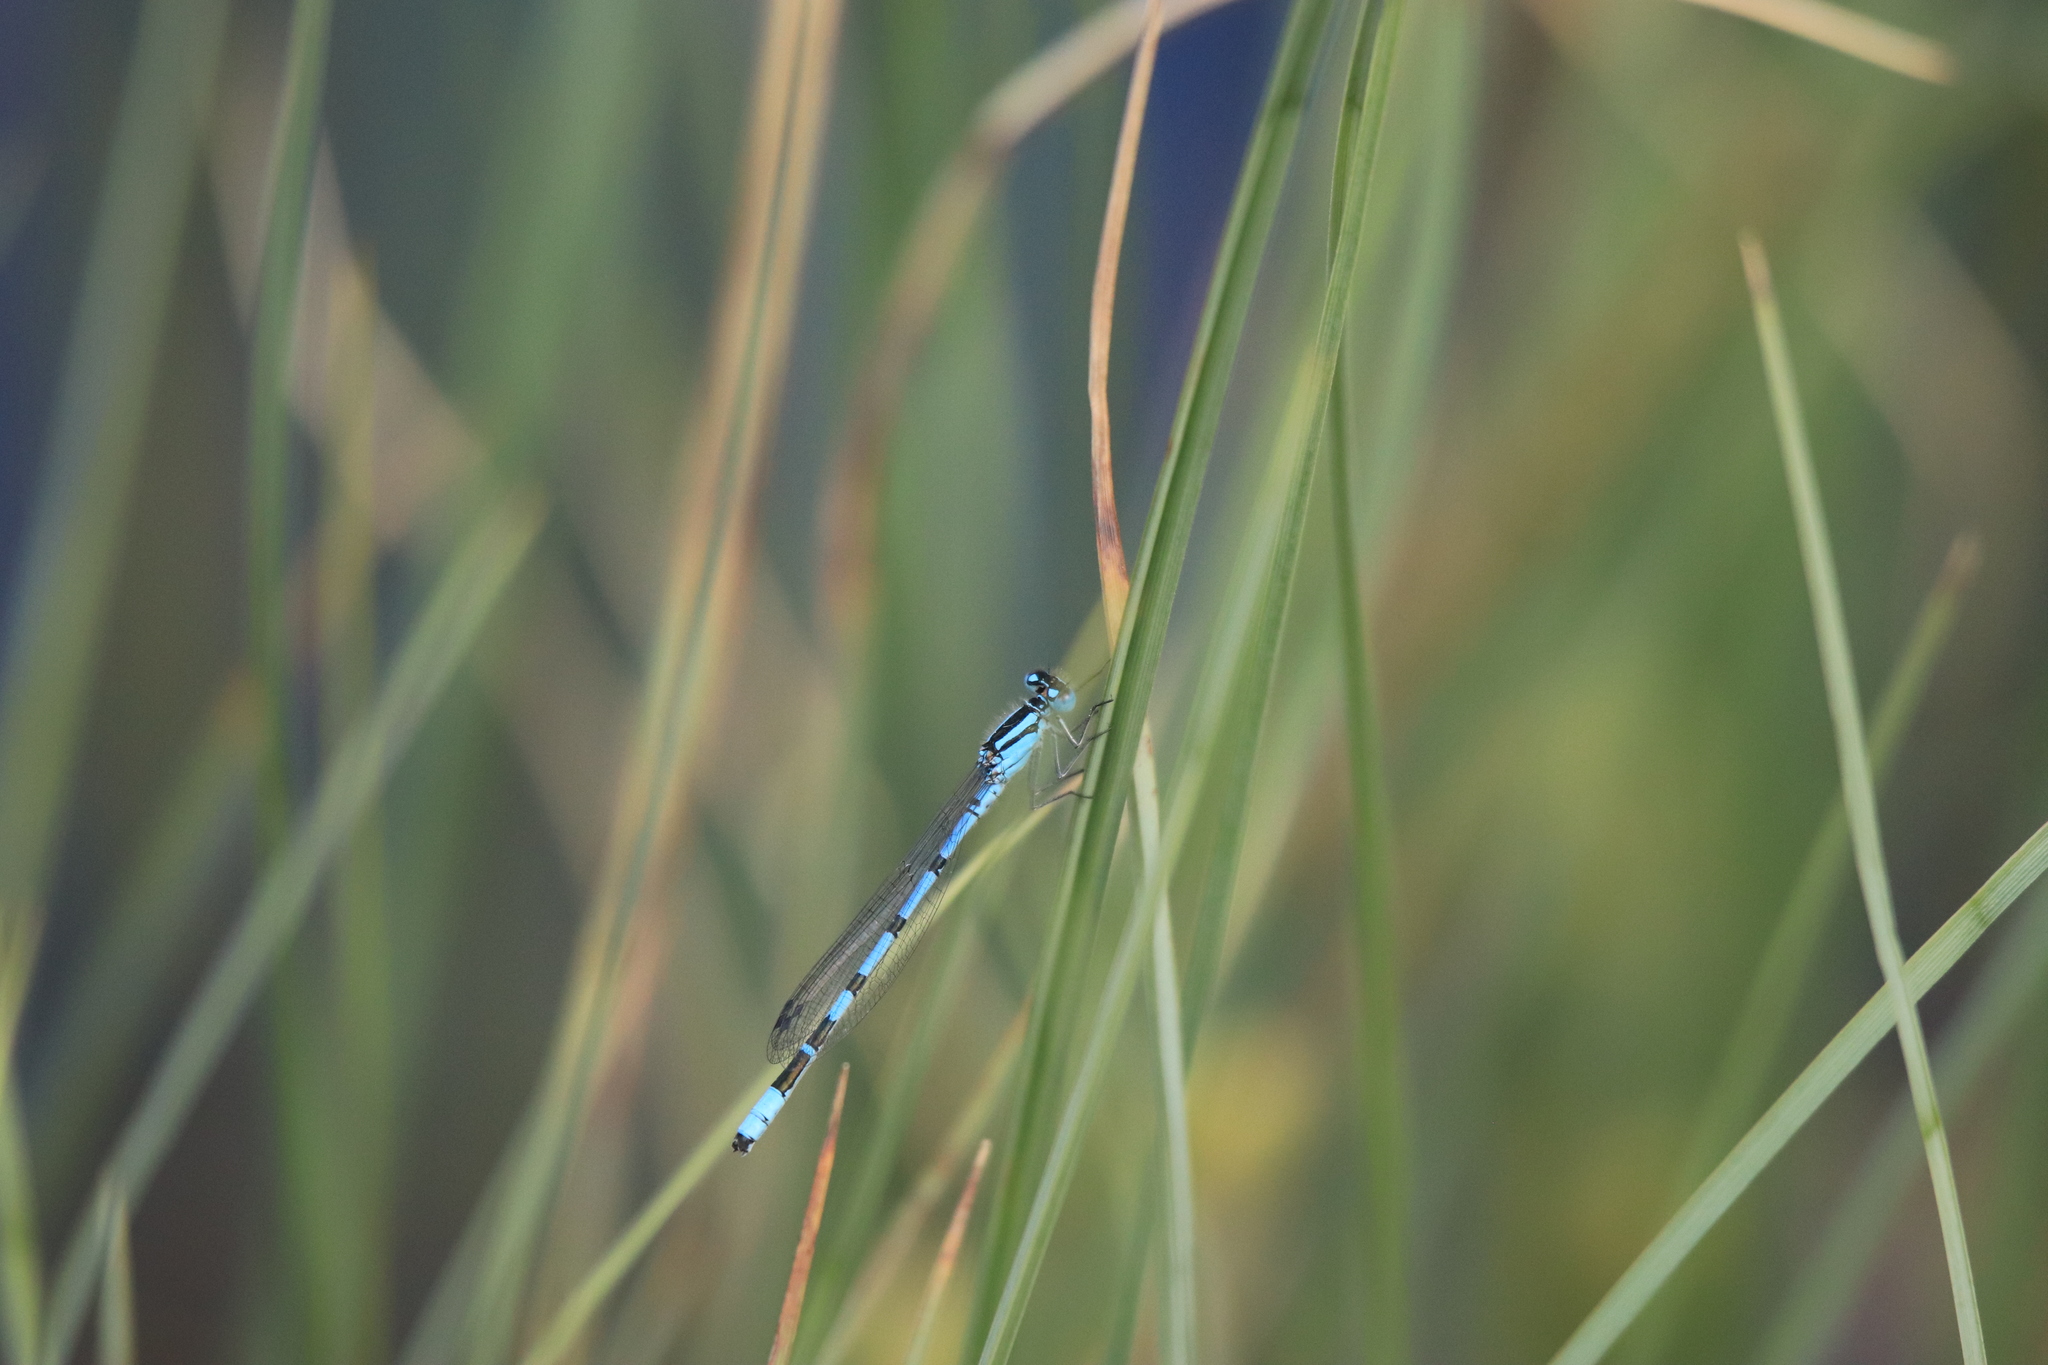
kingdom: Animalia
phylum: Arthropoda
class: Insecta
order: Odonata
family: Coenagrionidae
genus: Enallagma
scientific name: Enallagma cyathigerum
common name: Common blue damselfly
